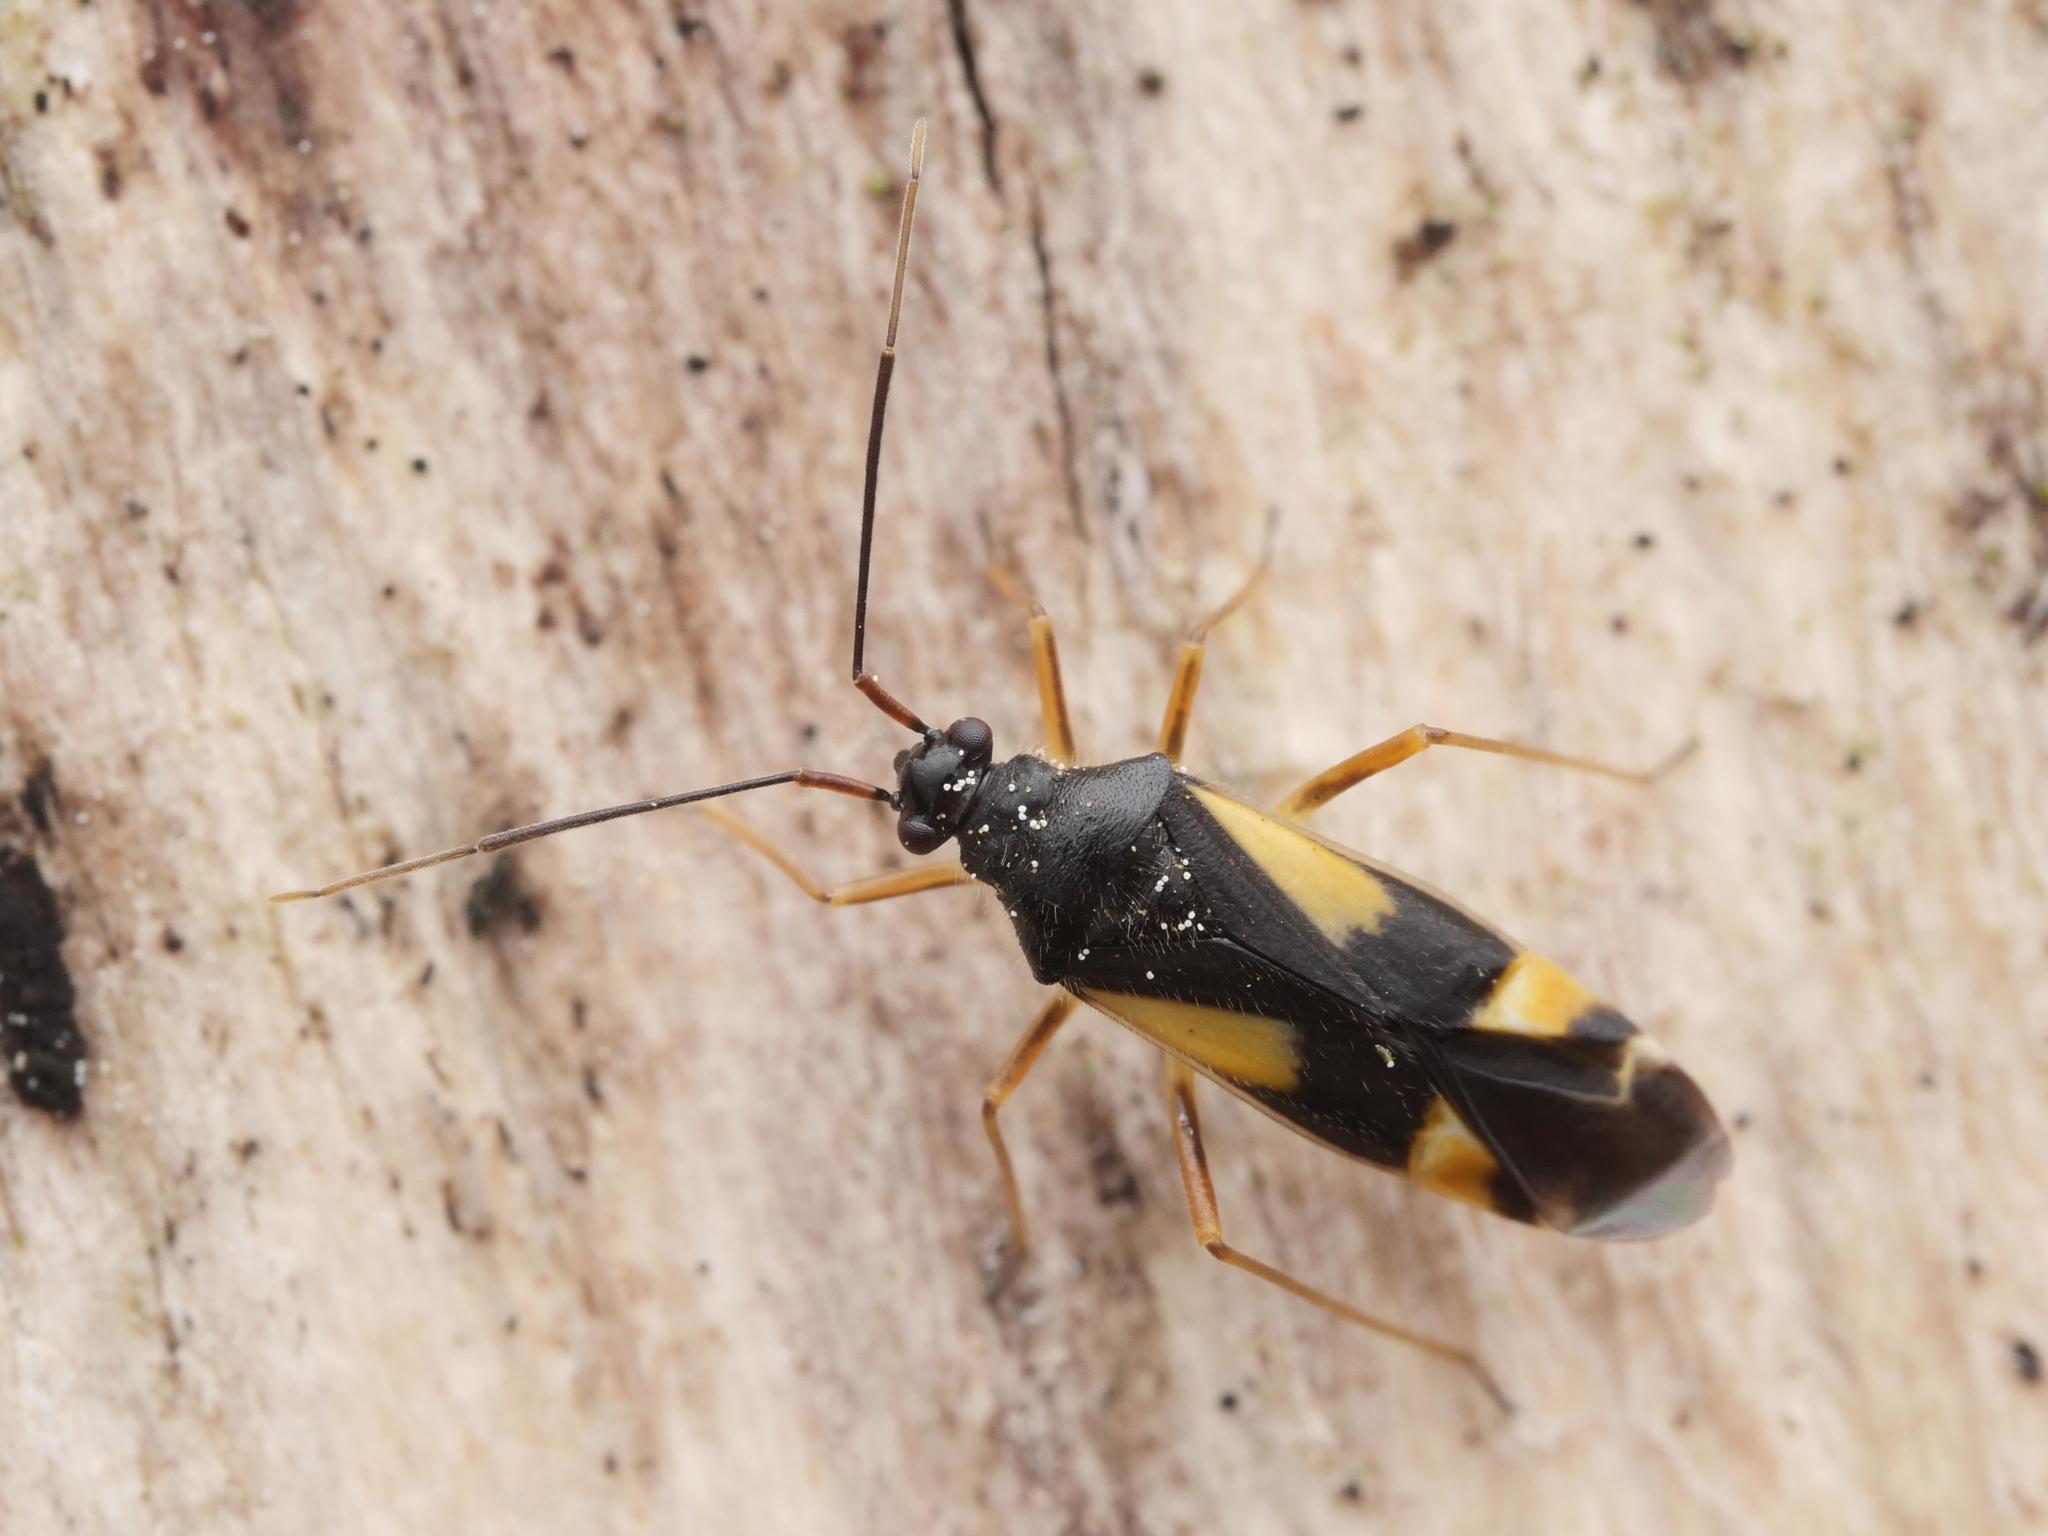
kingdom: Animalia
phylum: Arthropoda
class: Insecta
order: Hemiptera
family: Miridae
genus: Dryophilocoris
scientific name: Dryophilocoris flavoquadrimaculatus
